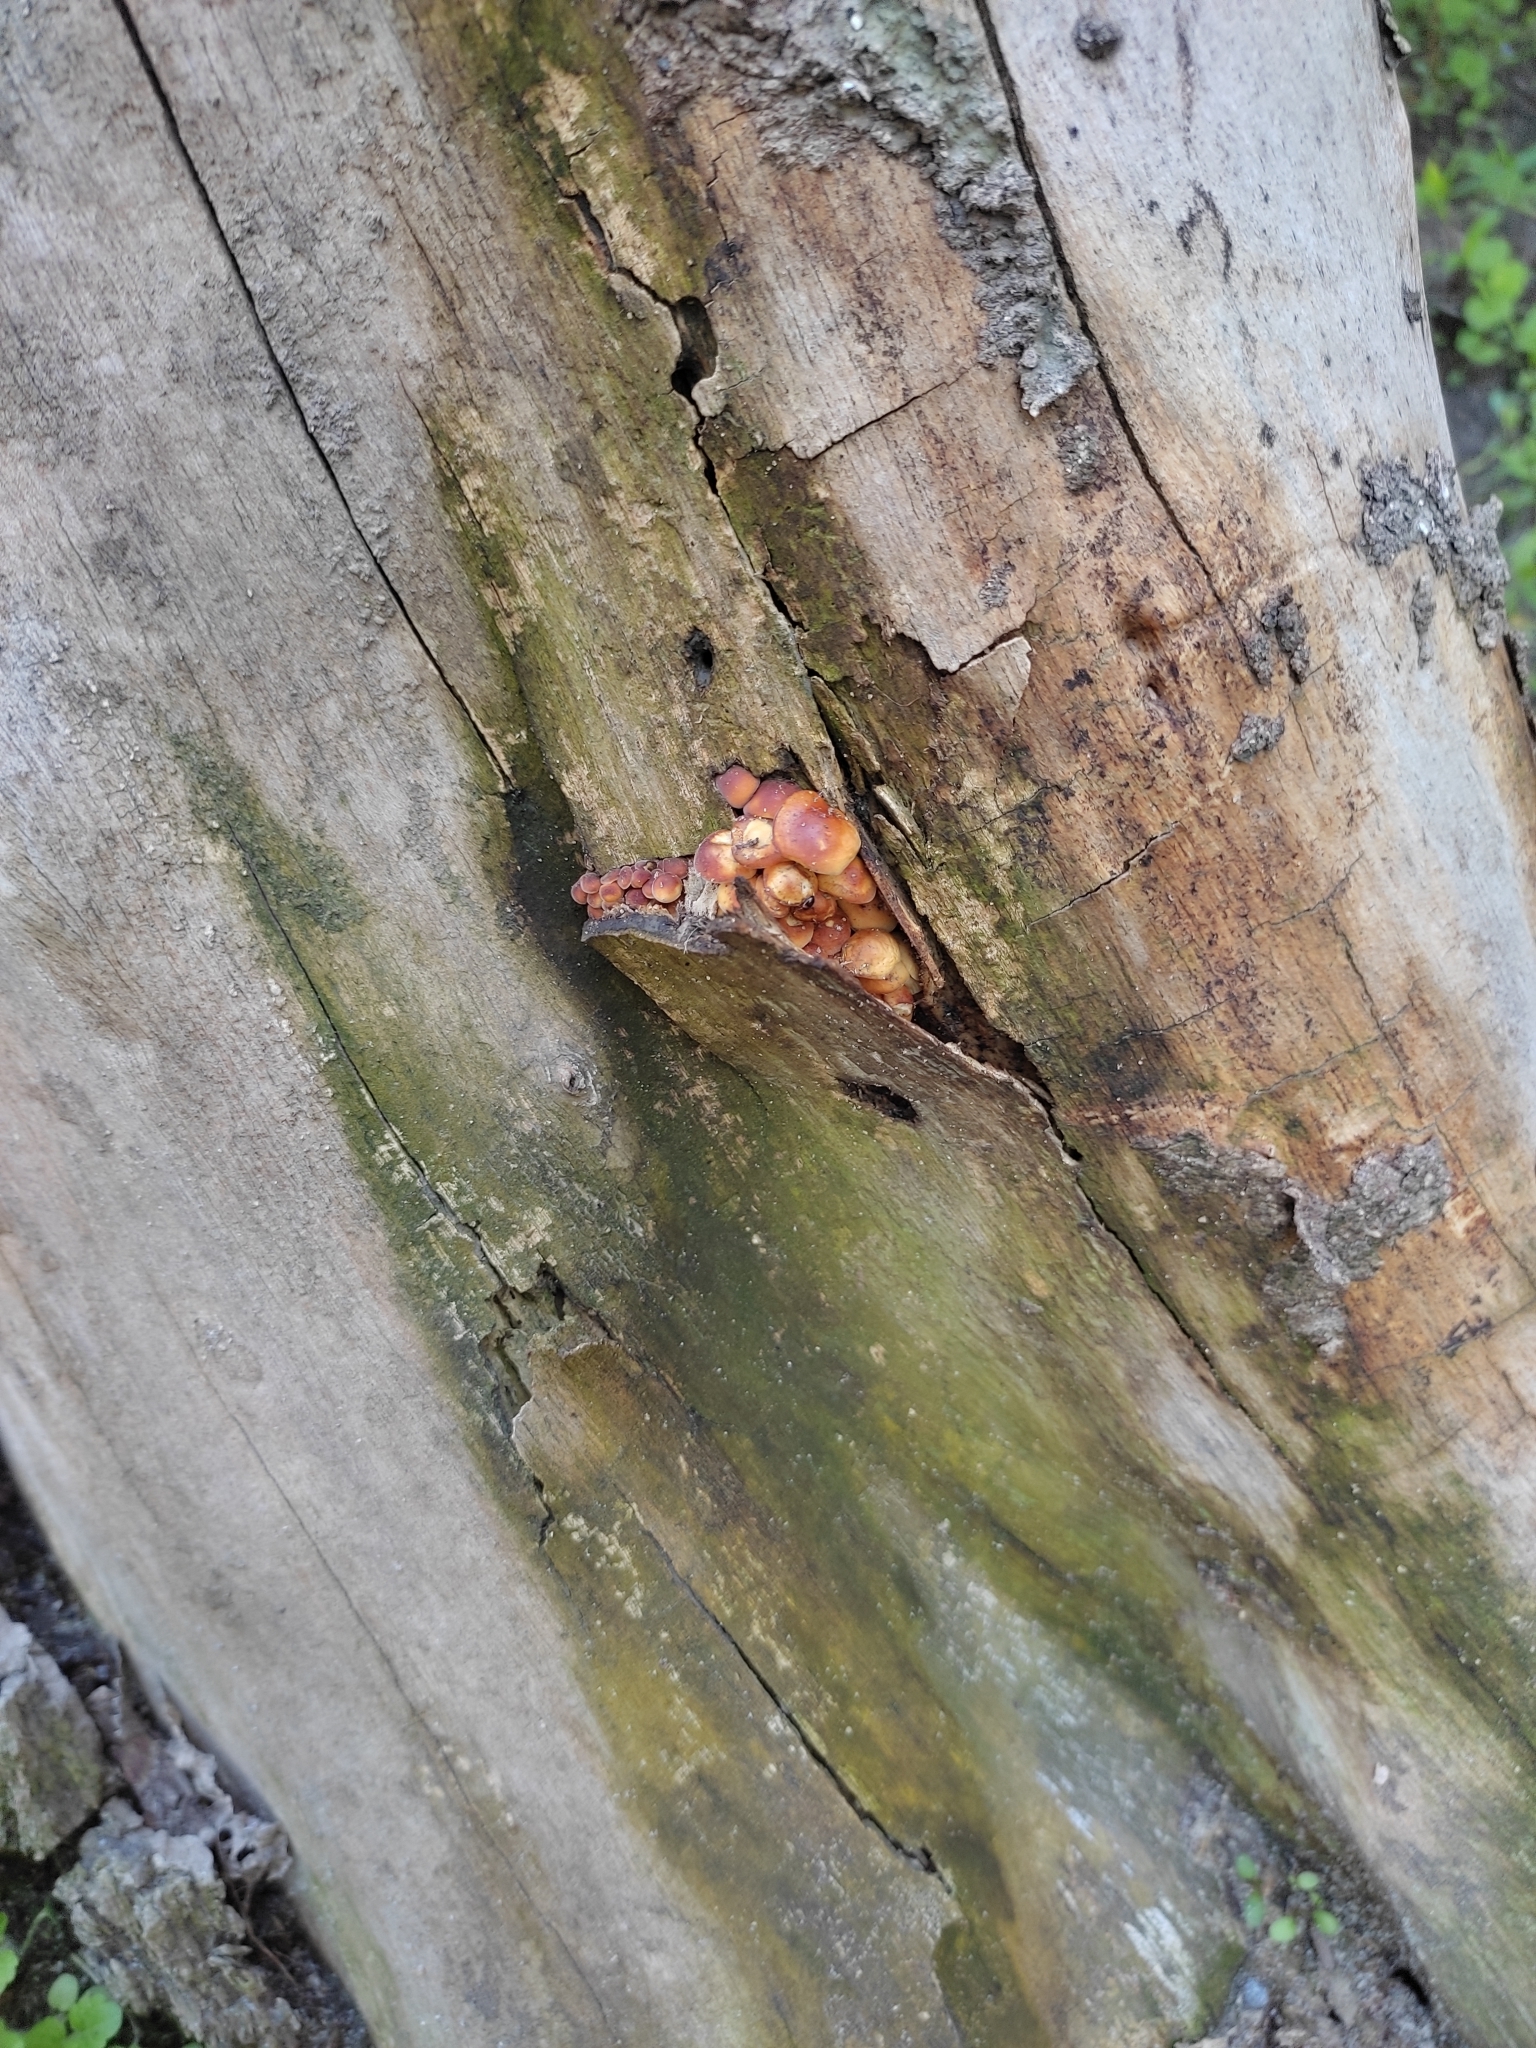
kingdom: Fungi
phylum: Basidiomycota
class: Agaricomycetes
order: Agaricales
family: Physalacriaceae
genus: Flammulina
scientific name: Flammulina
